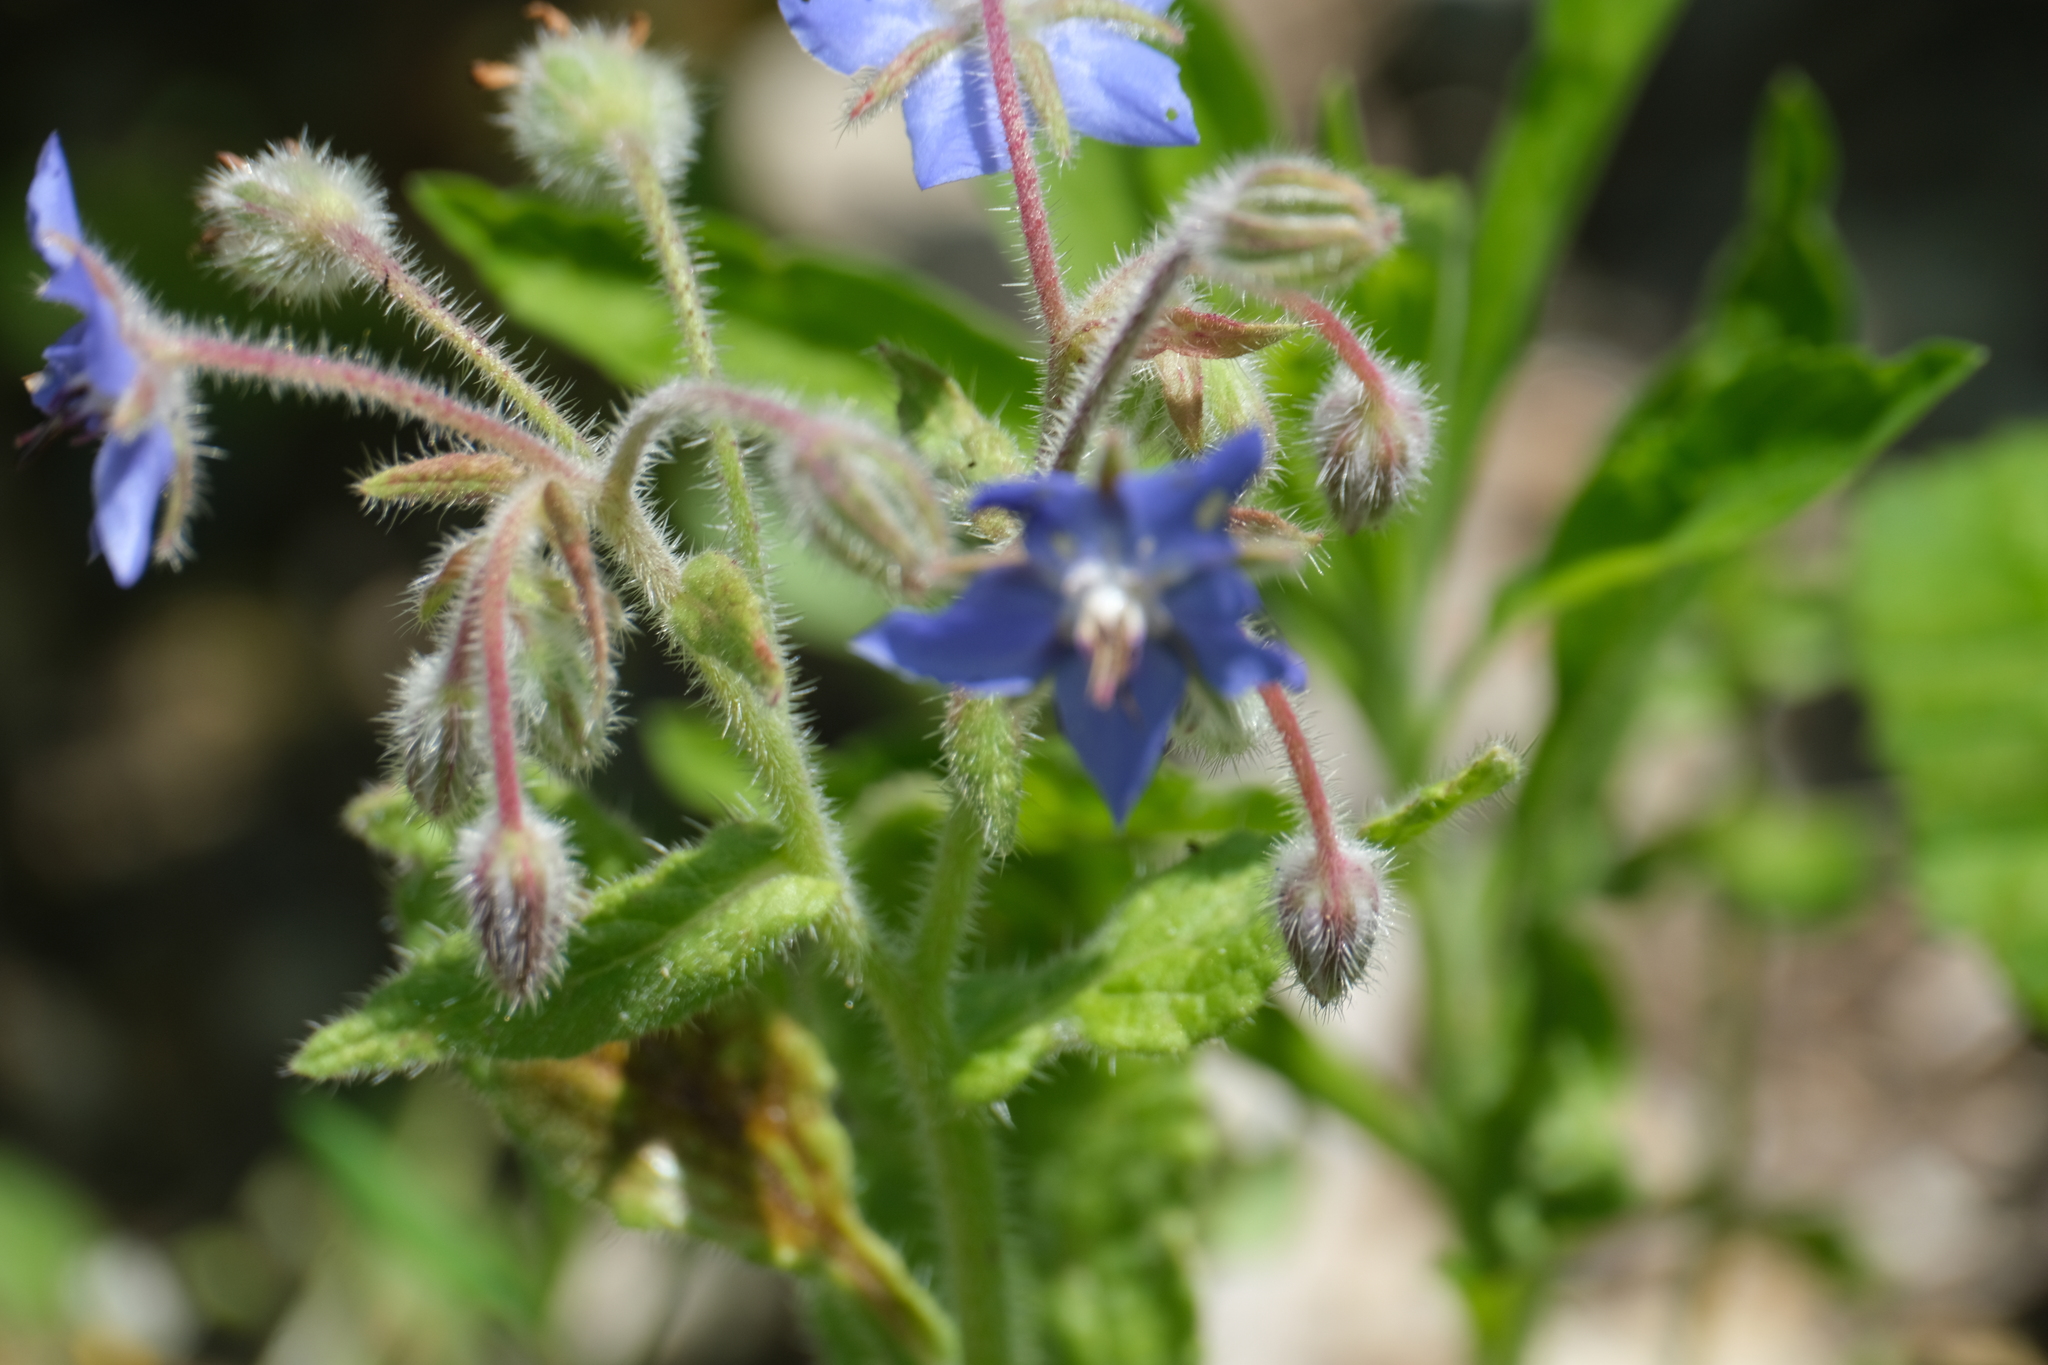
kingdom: Plantae
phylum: Tracheophyta
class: Magnoliopsida
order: Boraginales
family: Boraginaceae
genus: Borago
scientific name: Borago officinalis
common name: Borage
